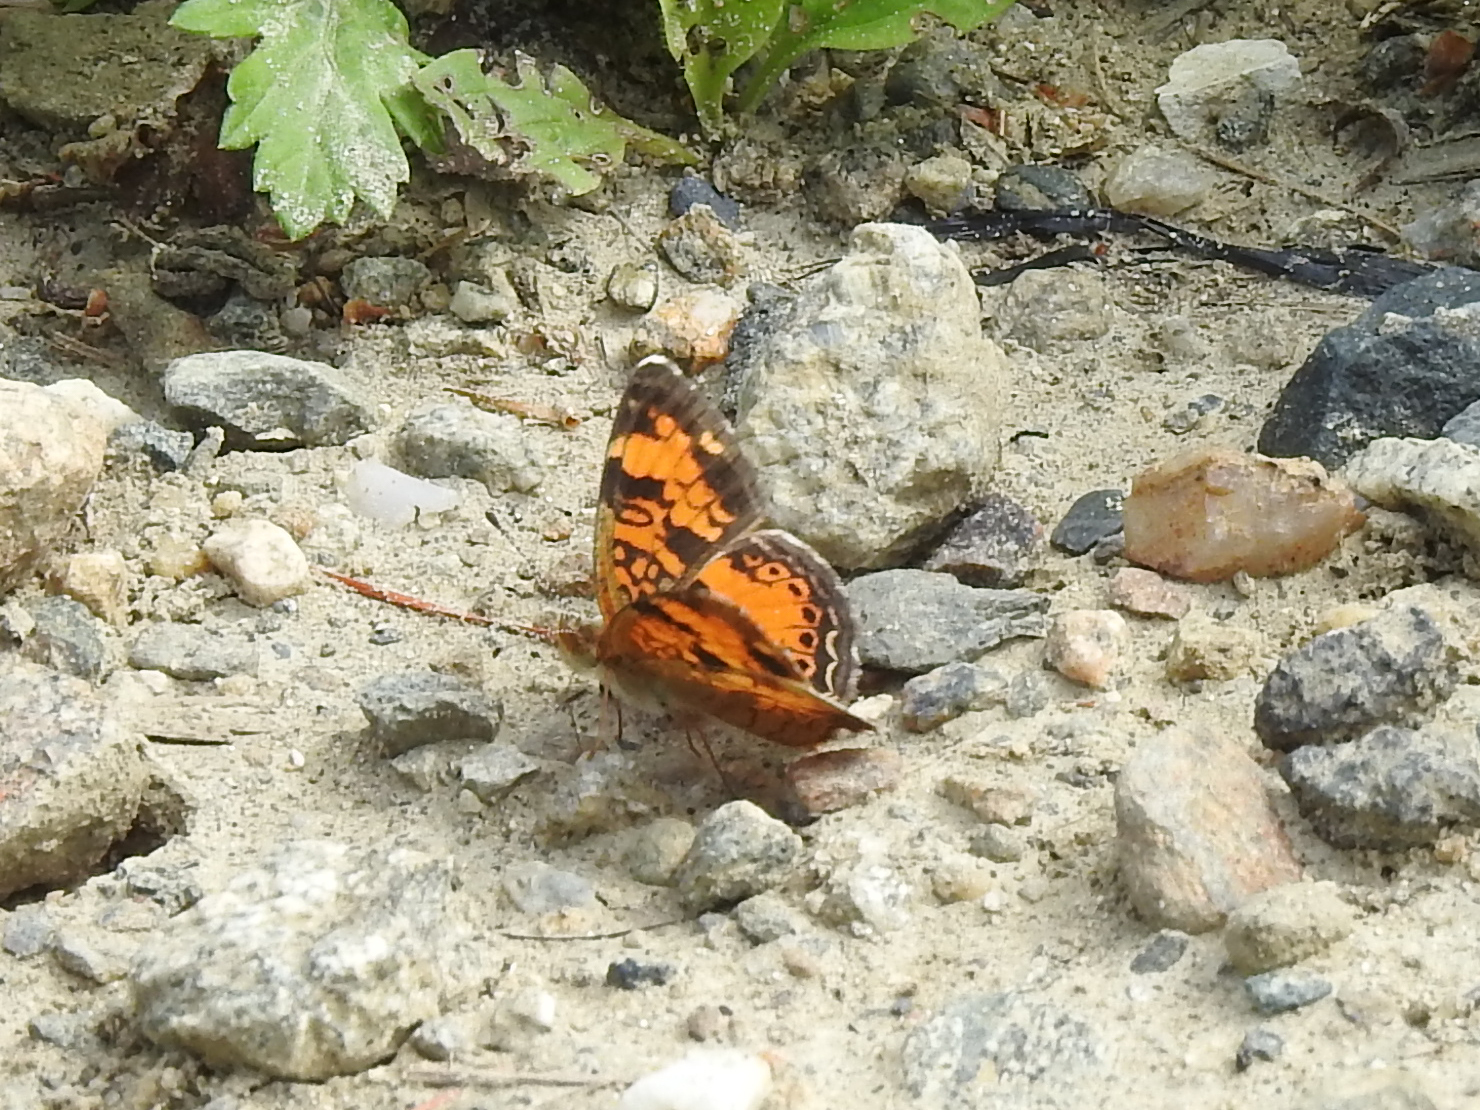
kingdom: Animalia
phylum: Arthropoda
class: Insecta
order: Lepidoptera
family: Nymphalidae
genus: Phyciodes
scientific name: Phyciodes tharos
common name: Pearl crescent
